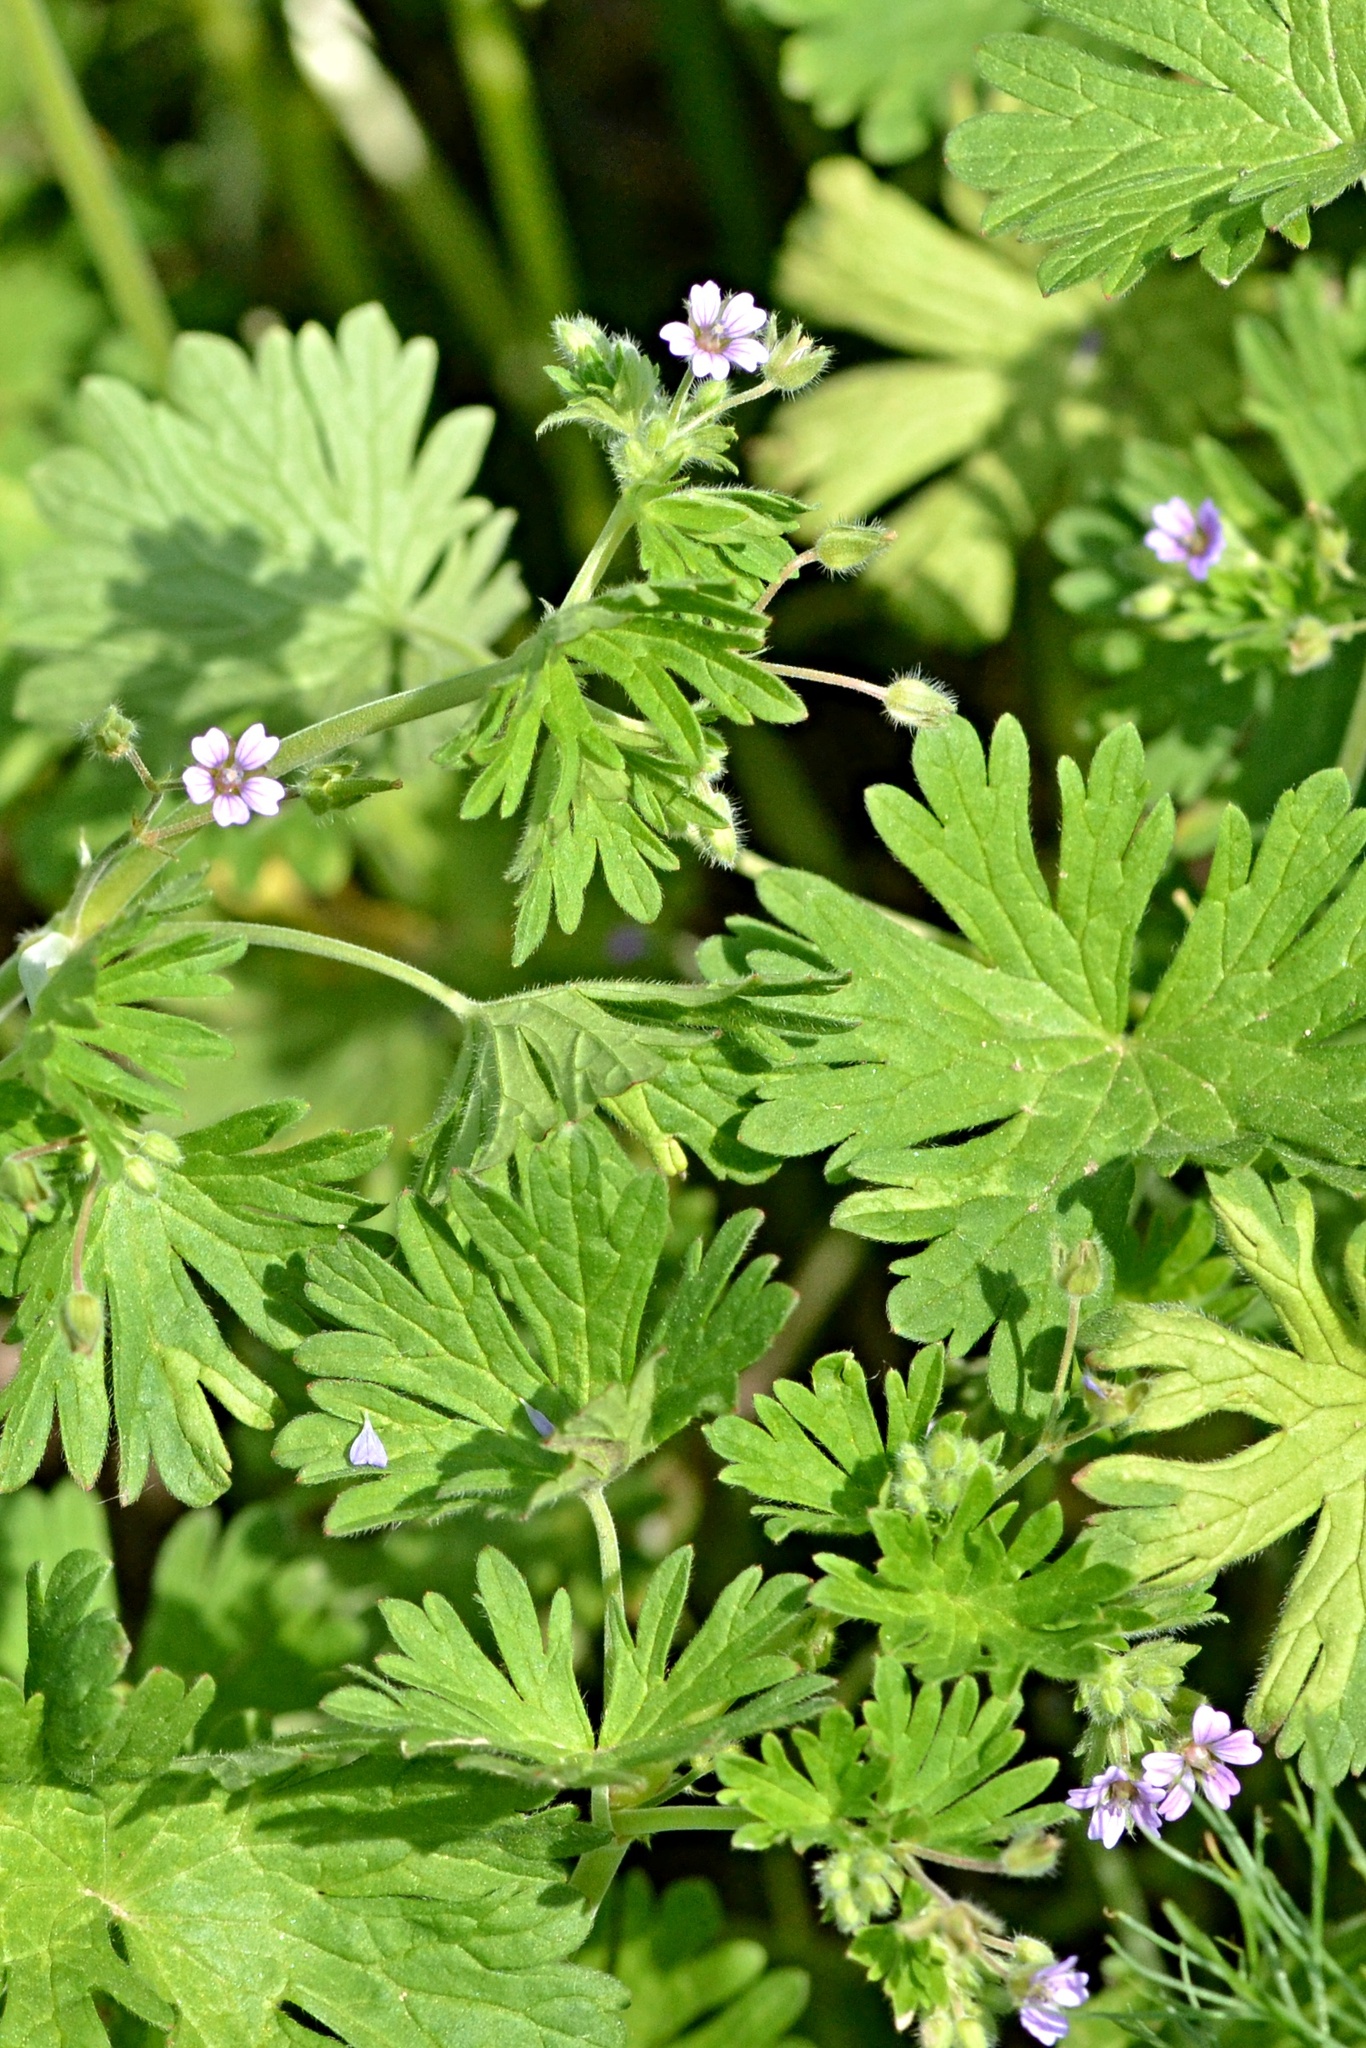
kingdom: Plantae
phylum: Tracheophyta
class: Magnoliopsida
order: Geraniales
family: Geraniaceae
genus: Geranium
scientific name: Geranium pusillum
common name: Small geranium
